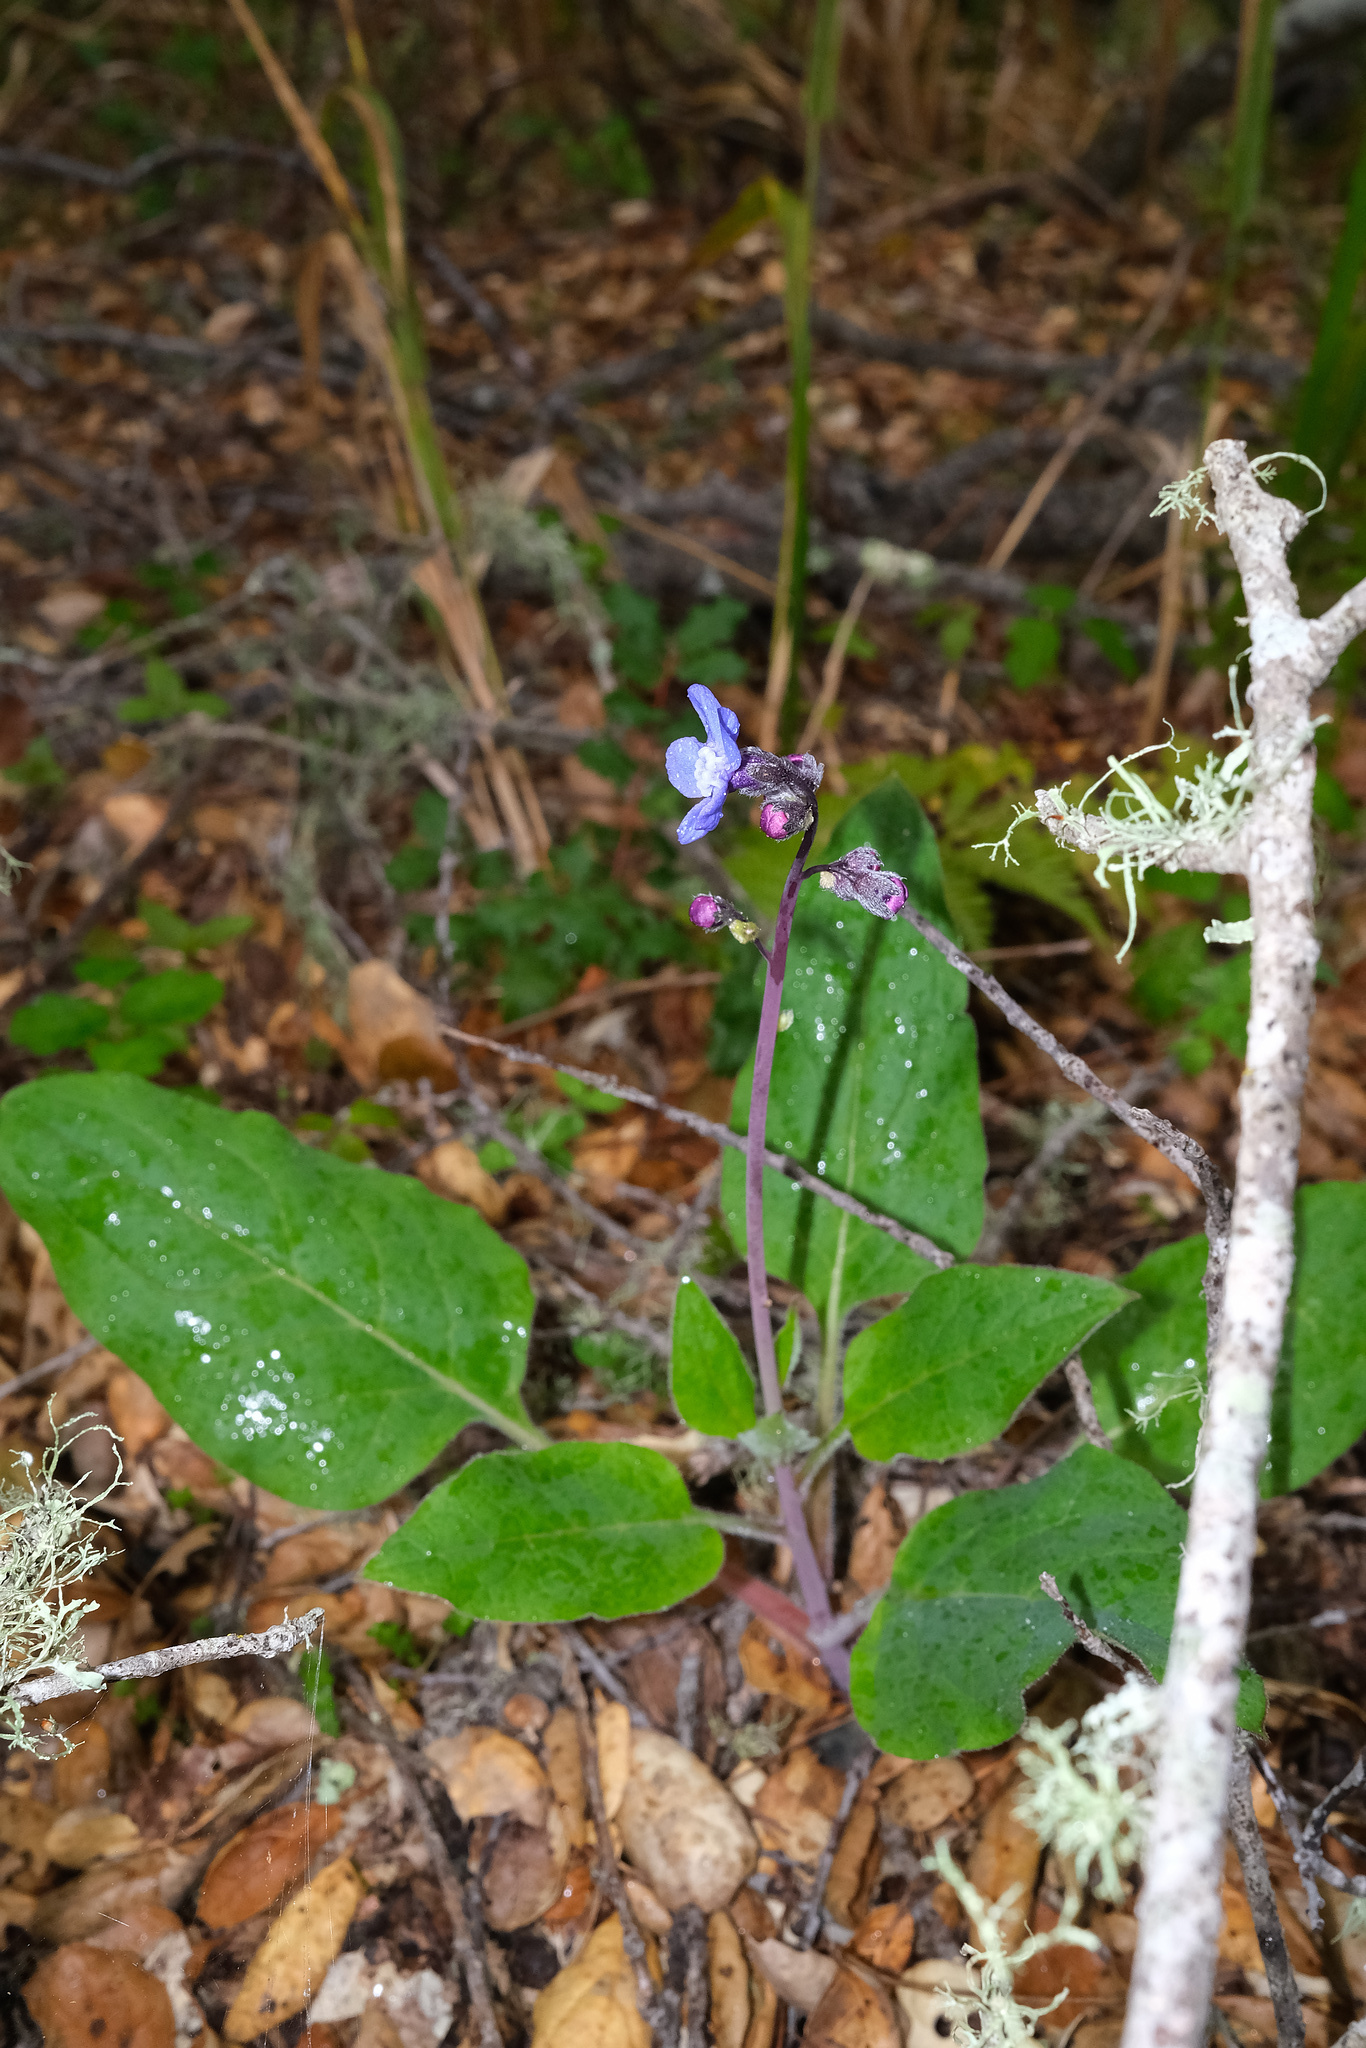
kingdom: Plantae
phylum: Tracheophyta
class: Magnoliopsida
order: Boraginales
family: Boraginaceae
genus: Adelinia
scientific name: Adelinia grande
